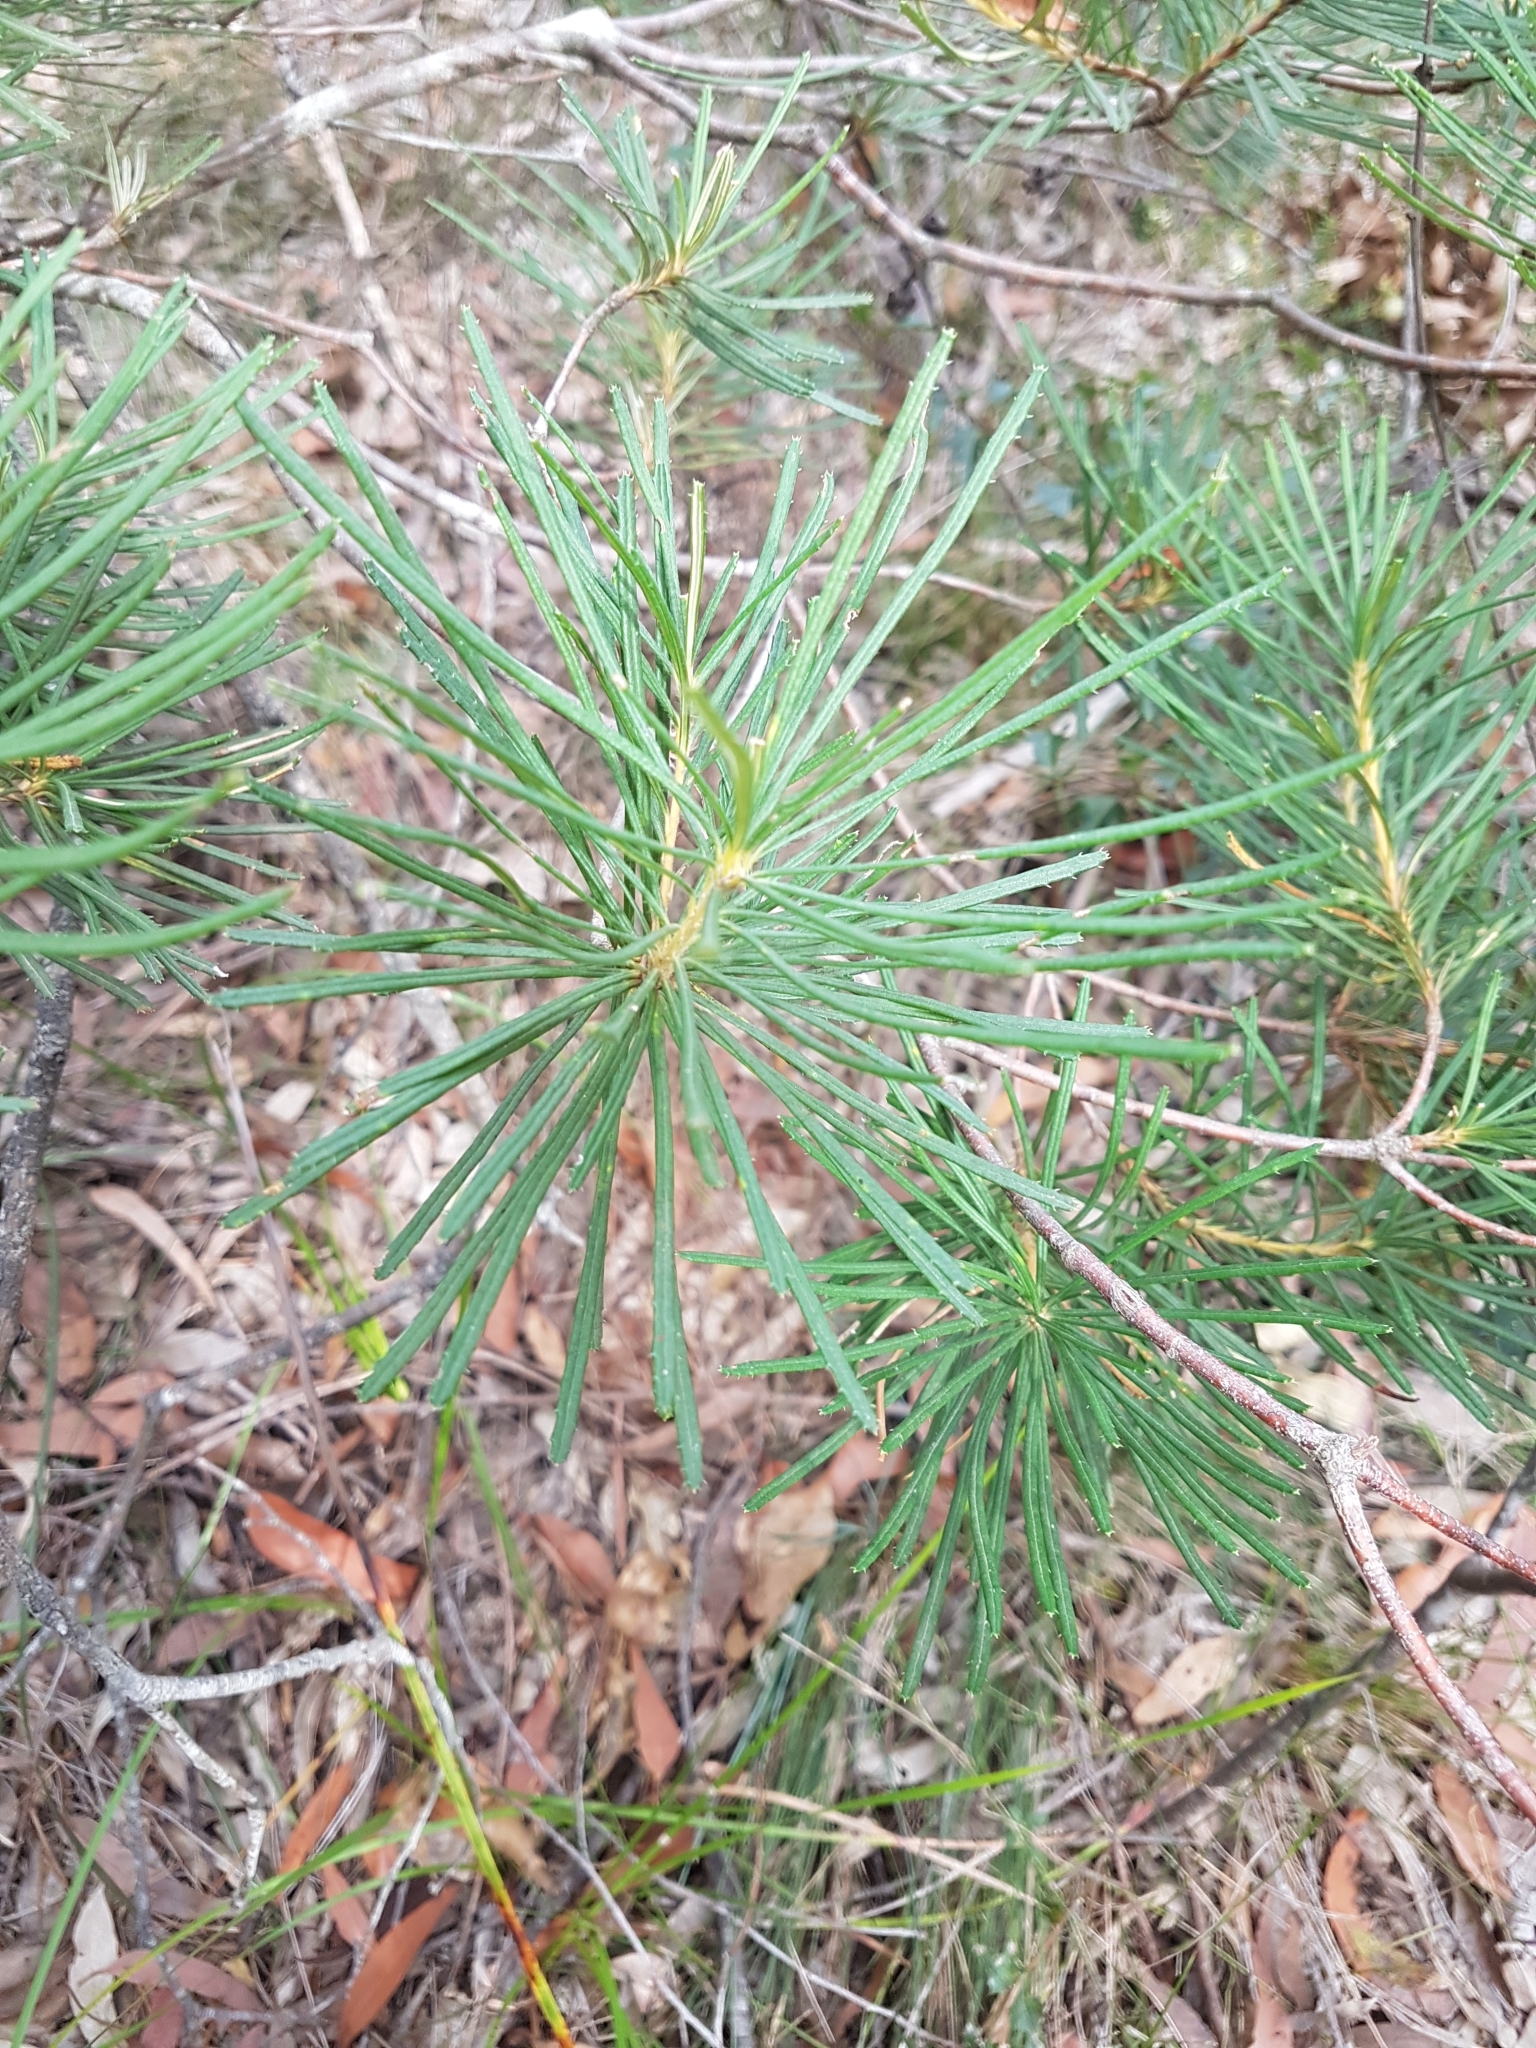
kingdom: Plantae
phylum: Tracheophyta
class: Magnoliopsida
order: Proteales
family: Proteaceae
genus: Banksia
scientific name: Banksia spinulosa
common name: Hairpin banksia
